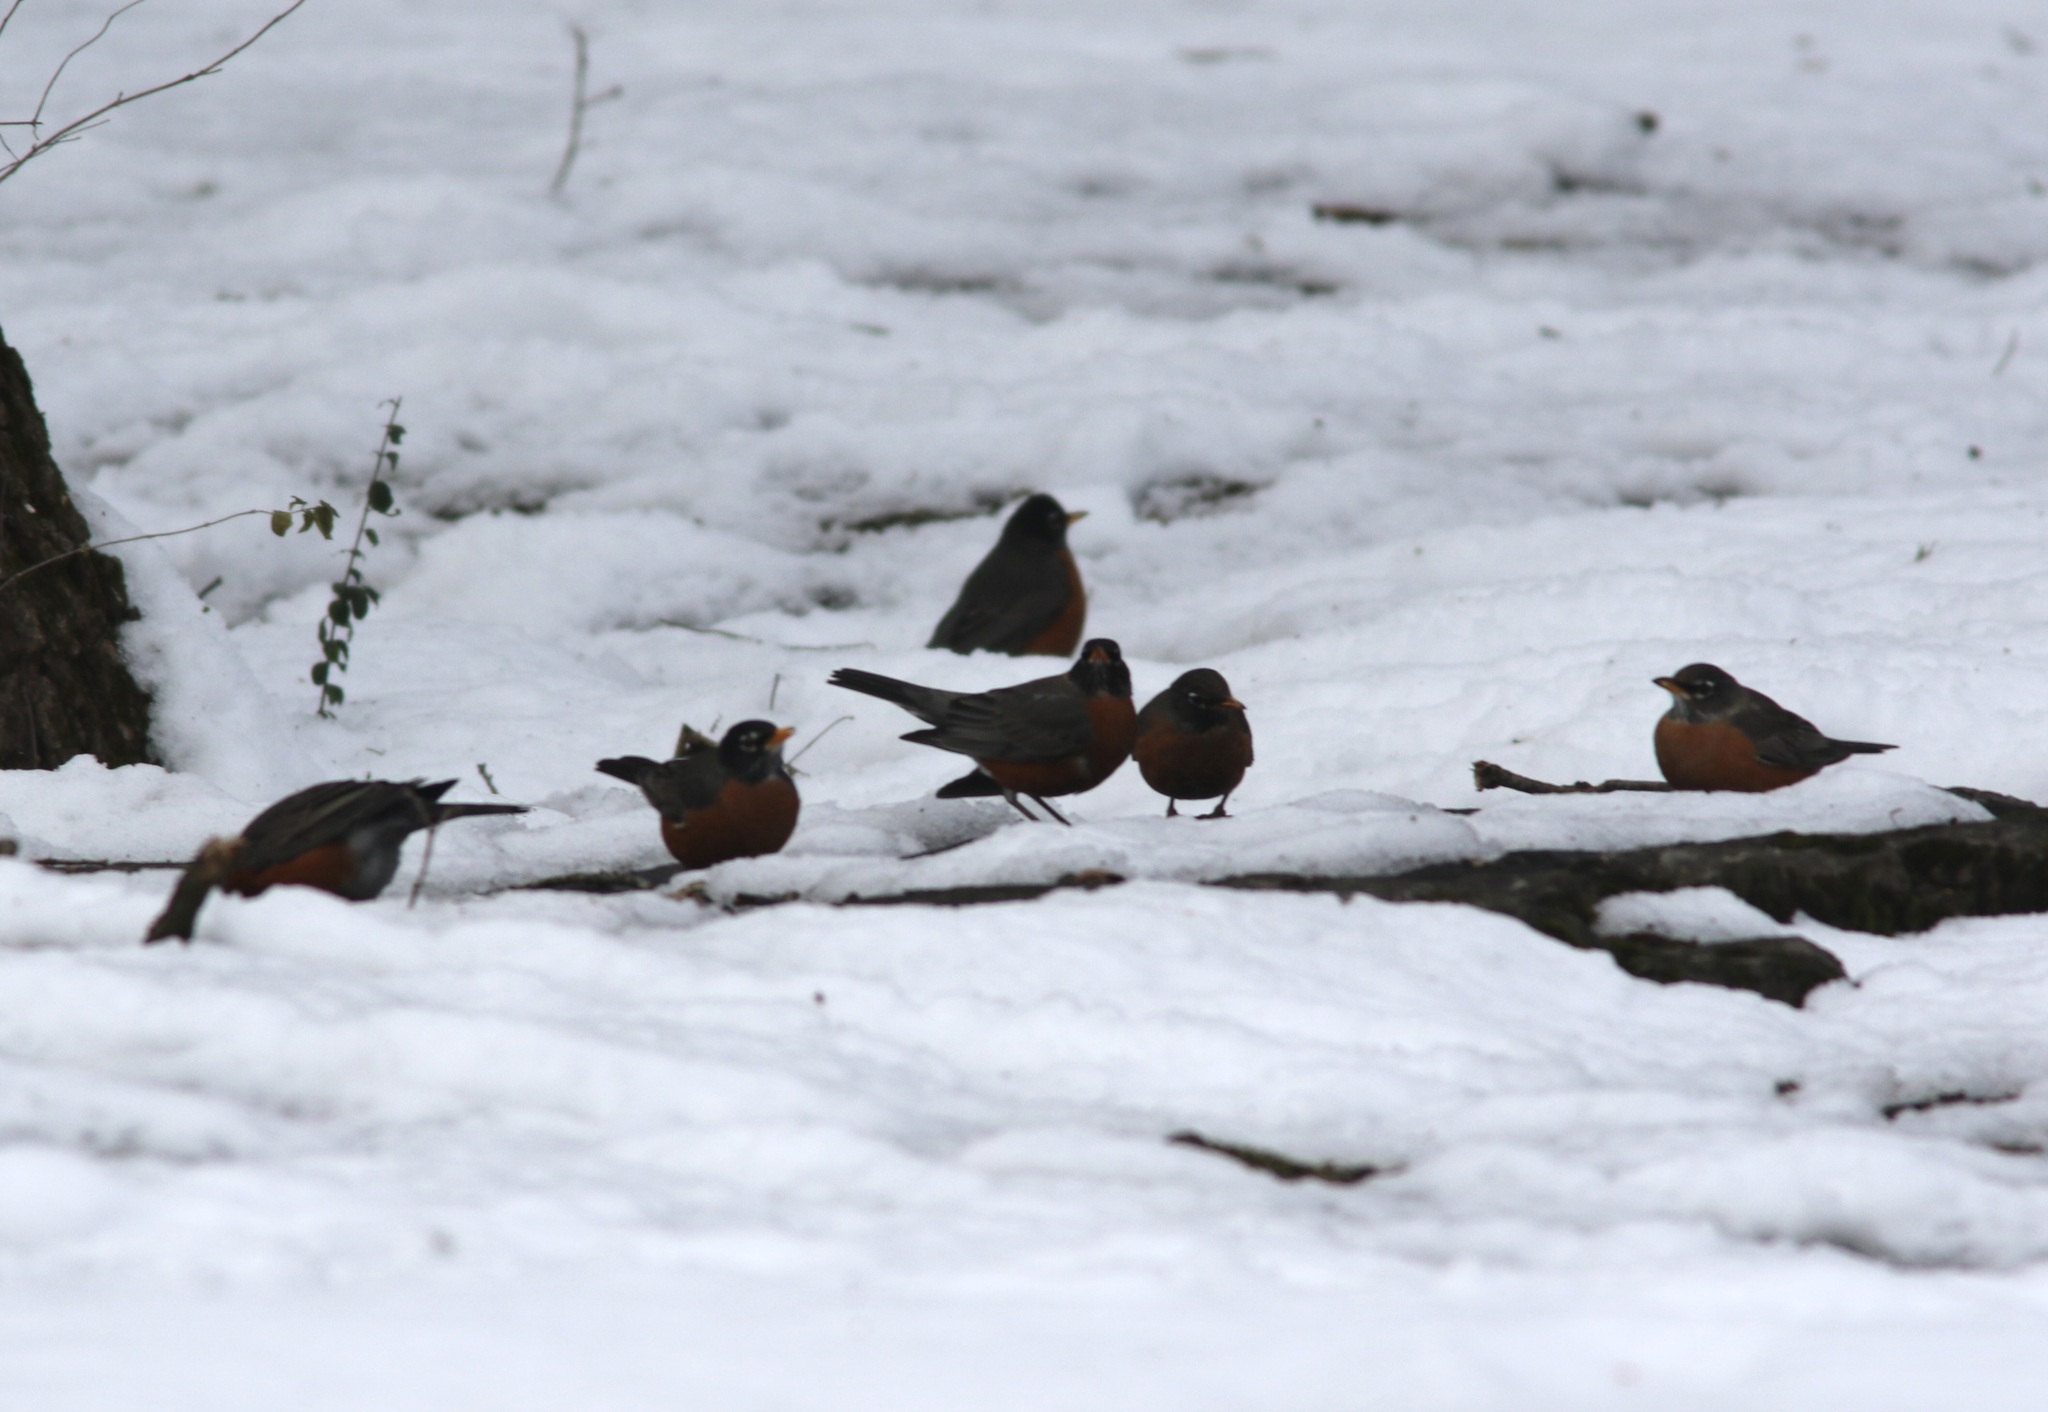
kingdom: Animalia
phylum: Chordata
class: Aves
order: Passeriformes
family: Turdidae
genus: Turdus
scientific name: Turdus migratorius
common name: American robin
